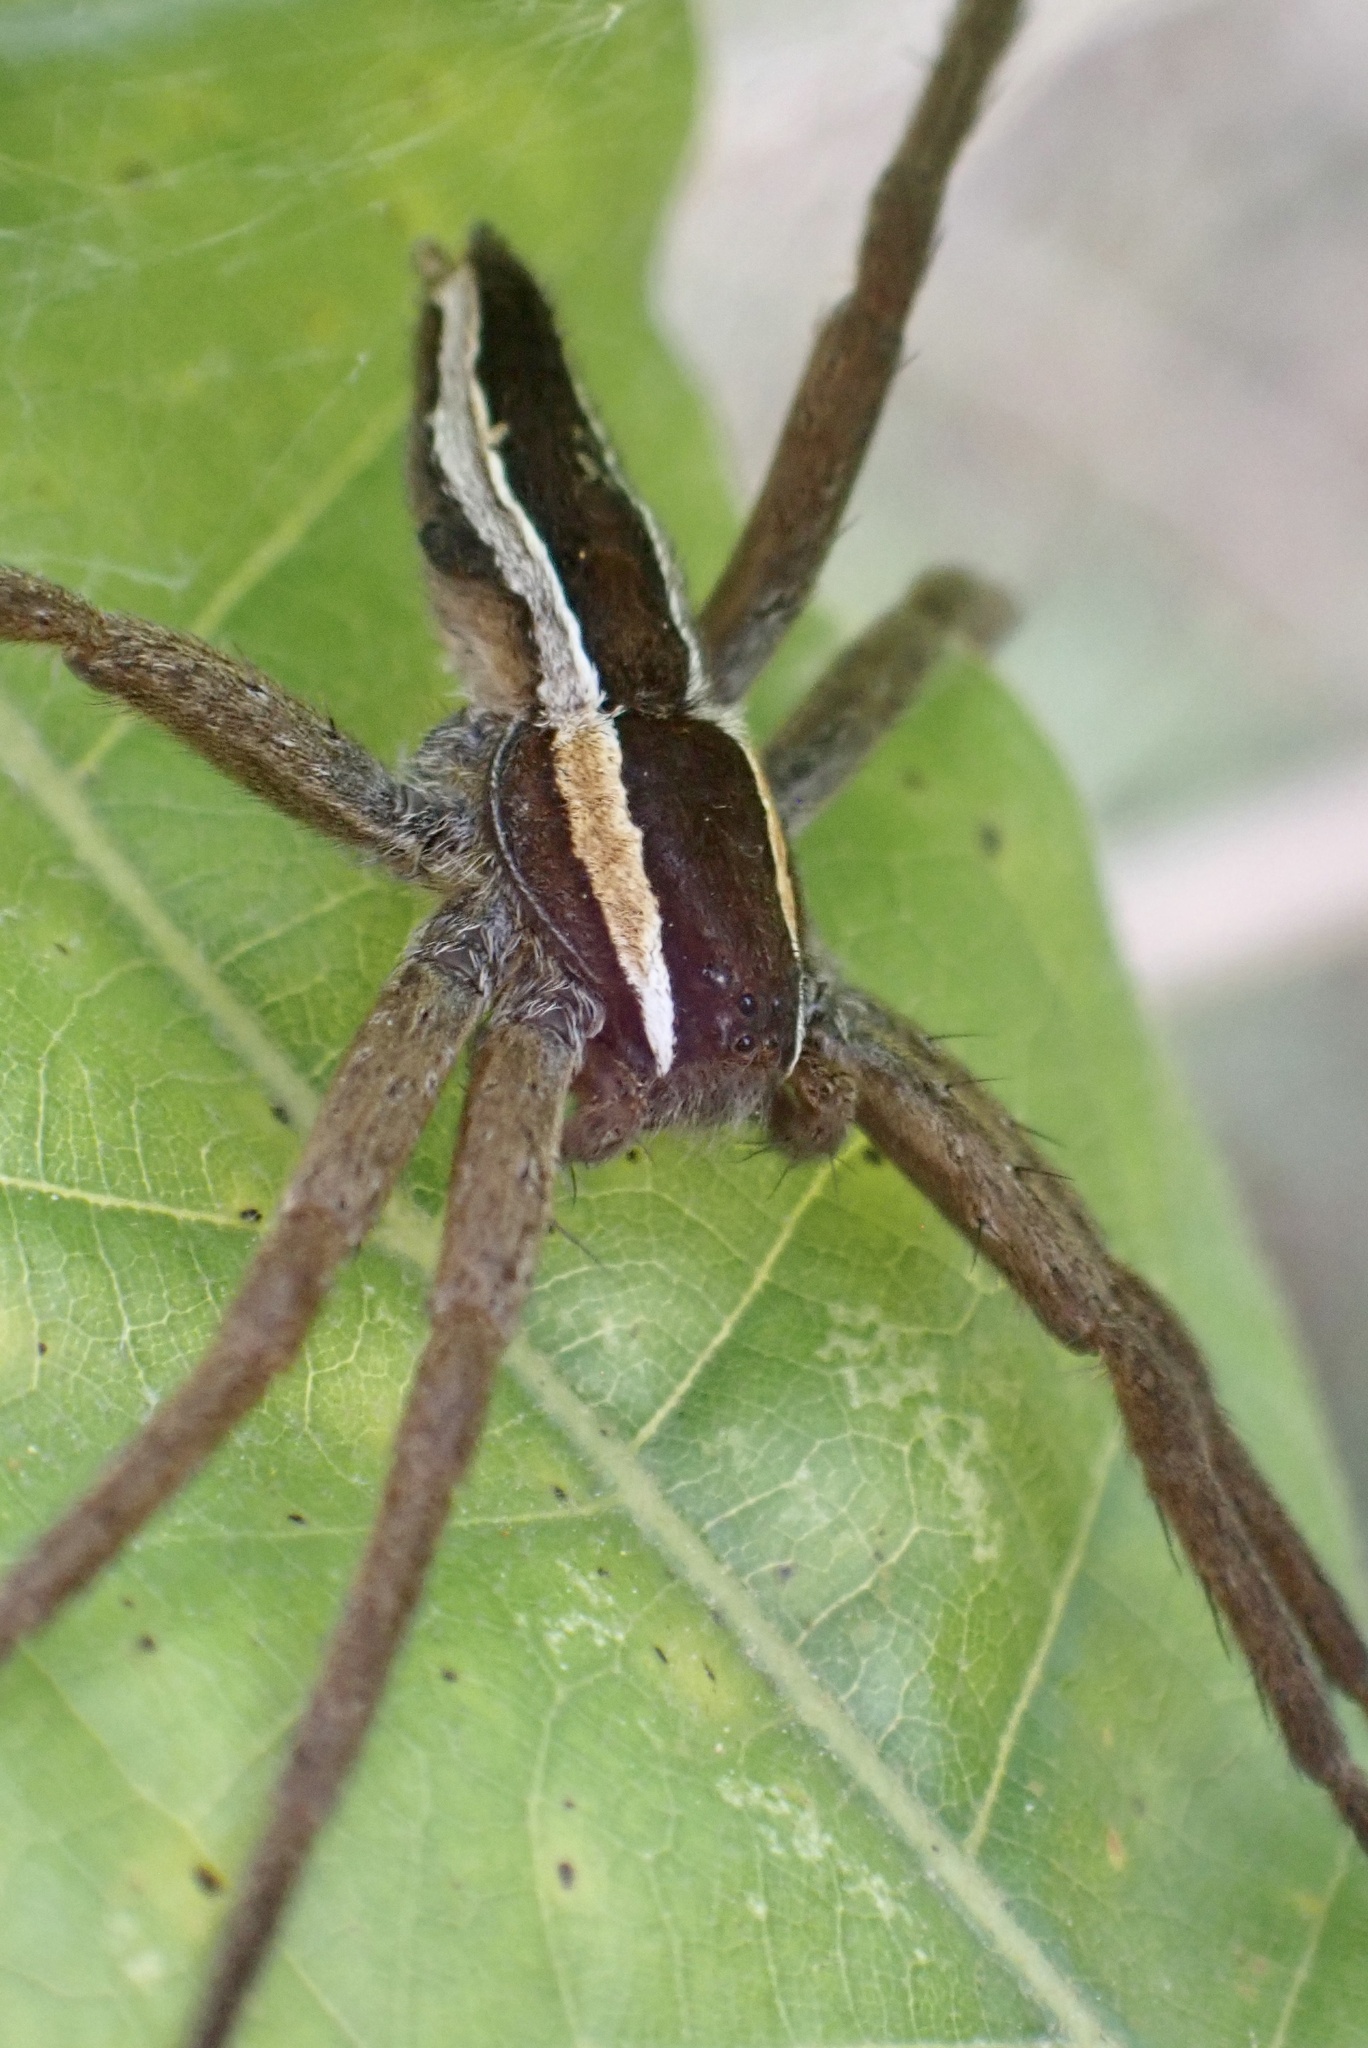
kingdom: Animalia
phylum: Arthropoda
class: Arachnida
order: Araneae
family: Pisauridae
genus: Pisaurina
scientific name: Pisaurina brevipes
